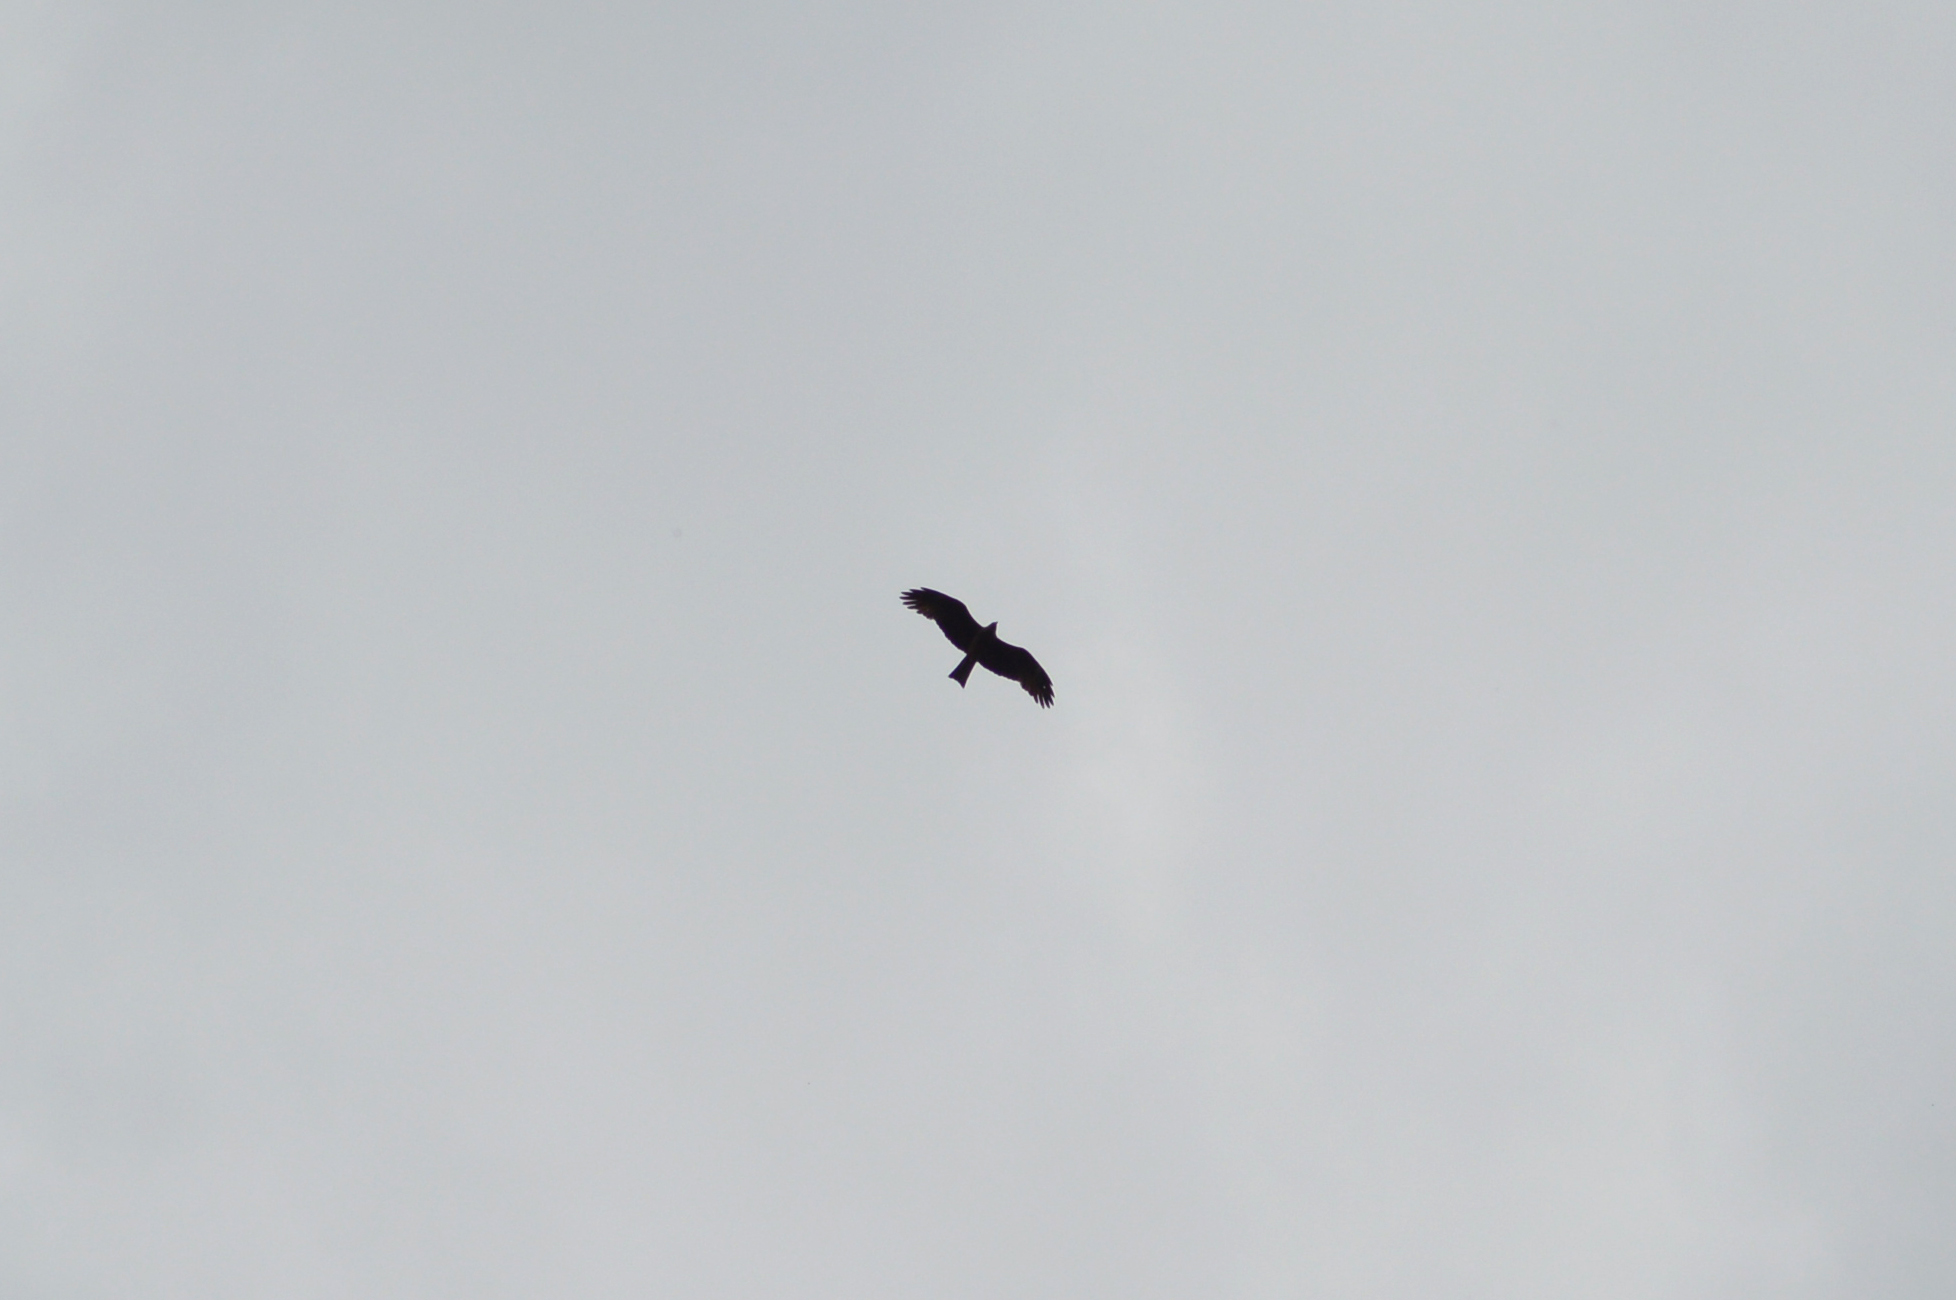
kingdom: Animalia
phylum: Chordata
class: Aves
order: Accipitriformes
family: Accipitridae
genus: Milvus
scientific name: Milvus migrans
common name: Black kite
